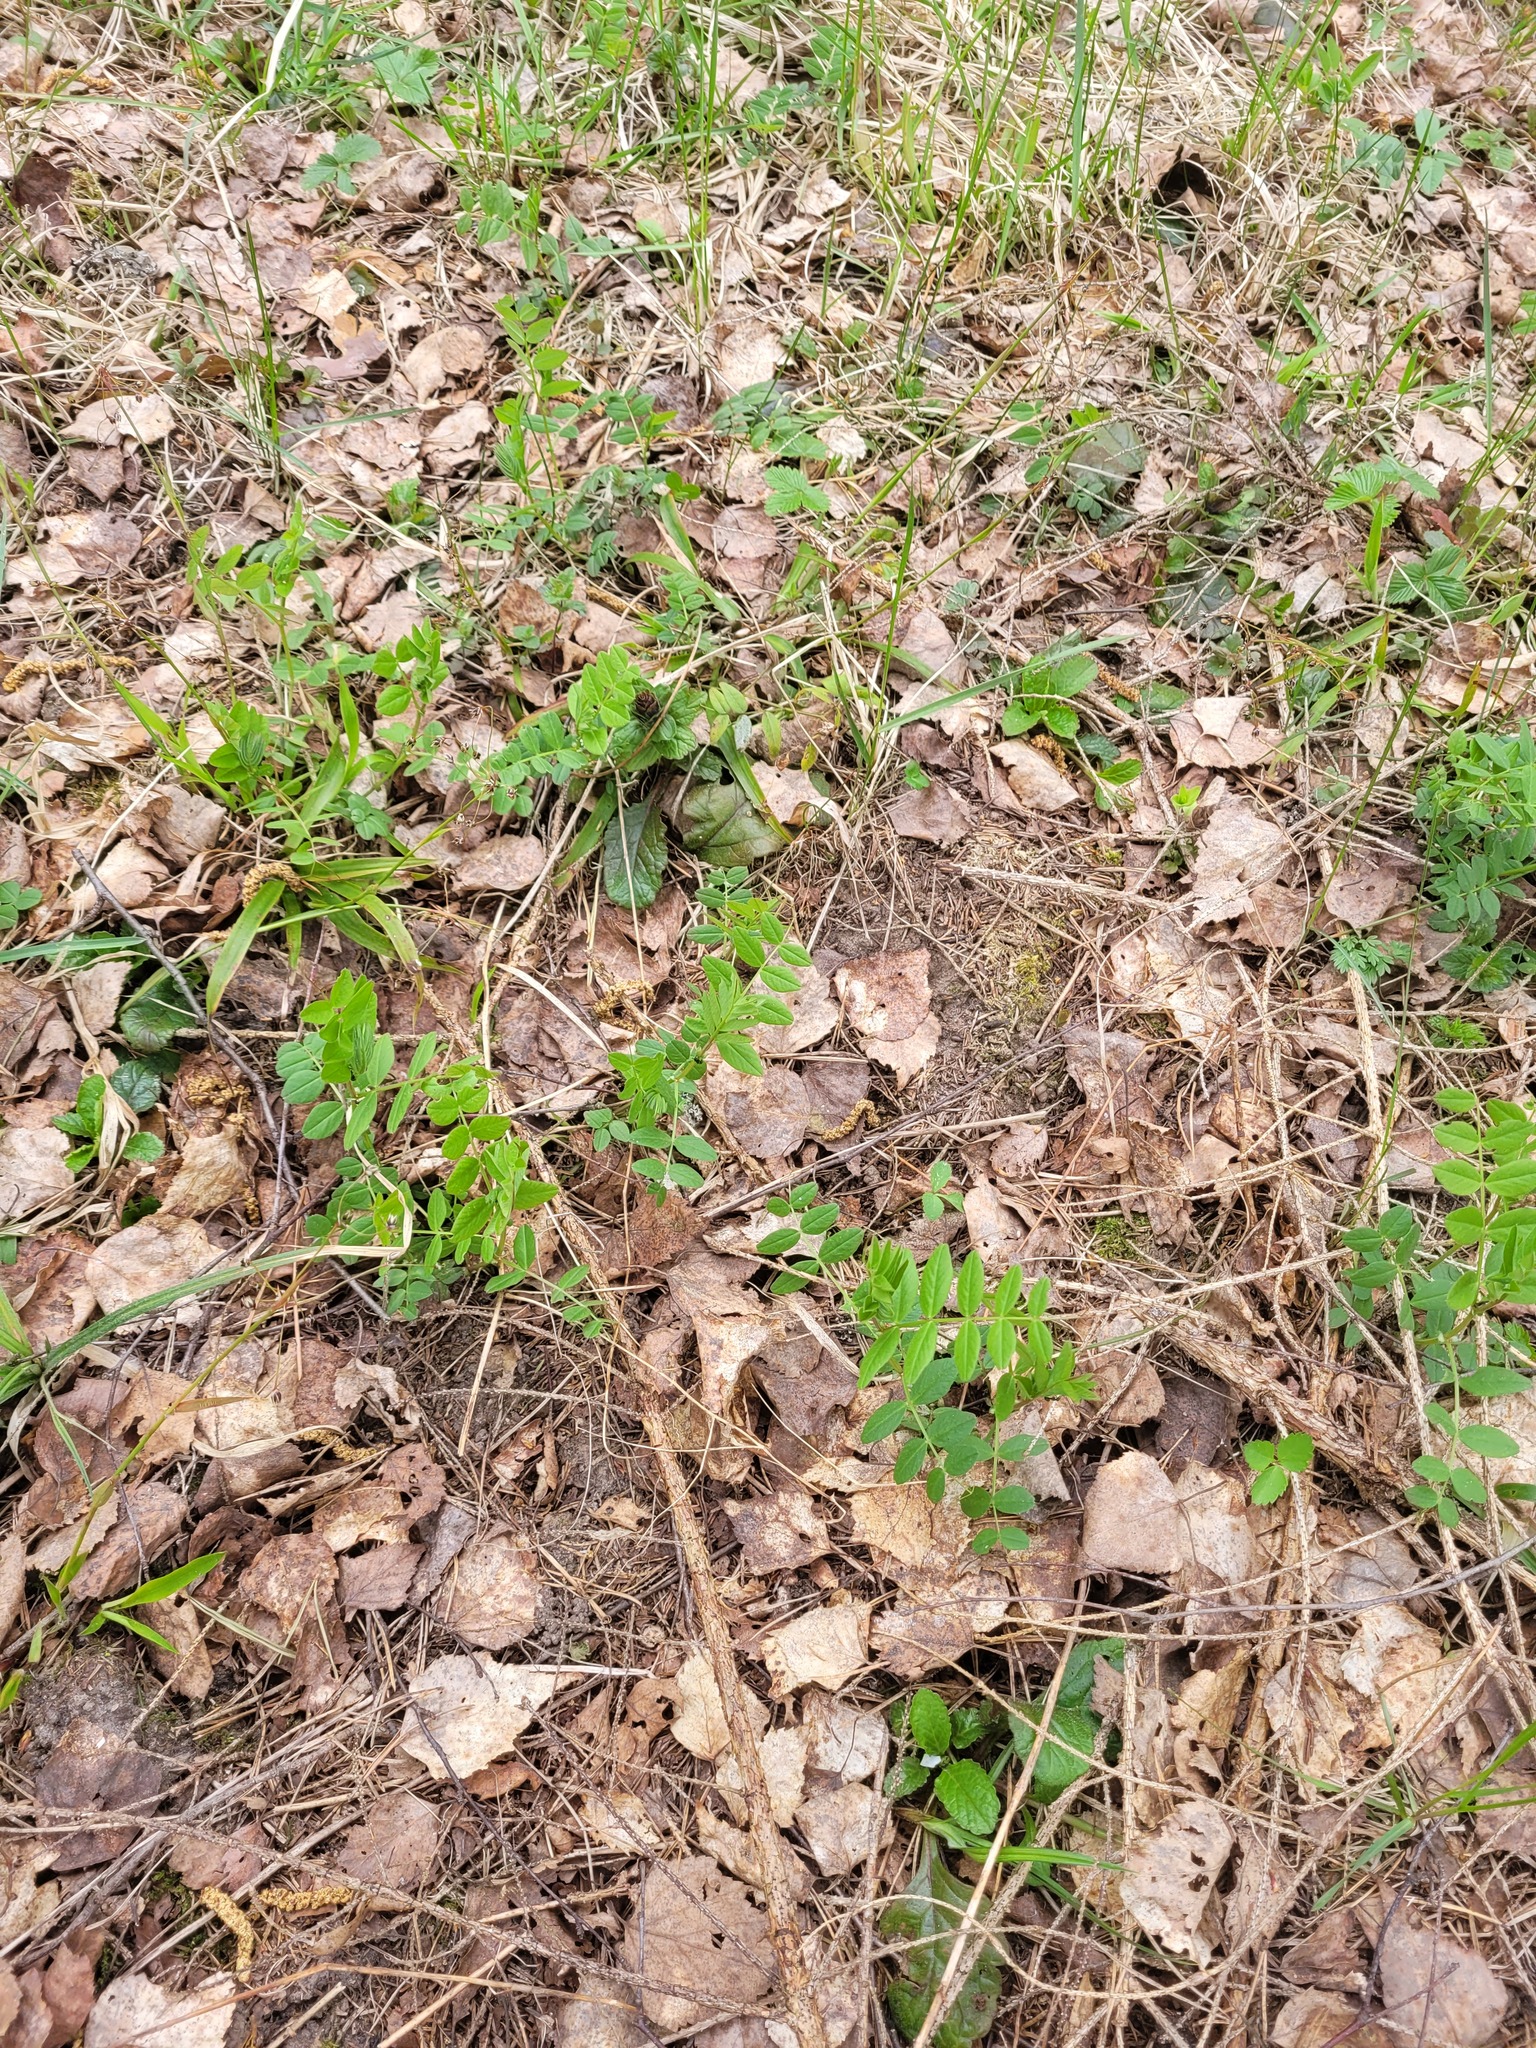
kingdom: Plantae
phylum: Tracheophyta
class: Magnoliopsida
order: Fabales
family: Fabaceae
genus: Vicia
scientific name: Vicia sepium
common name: Bush vetch
